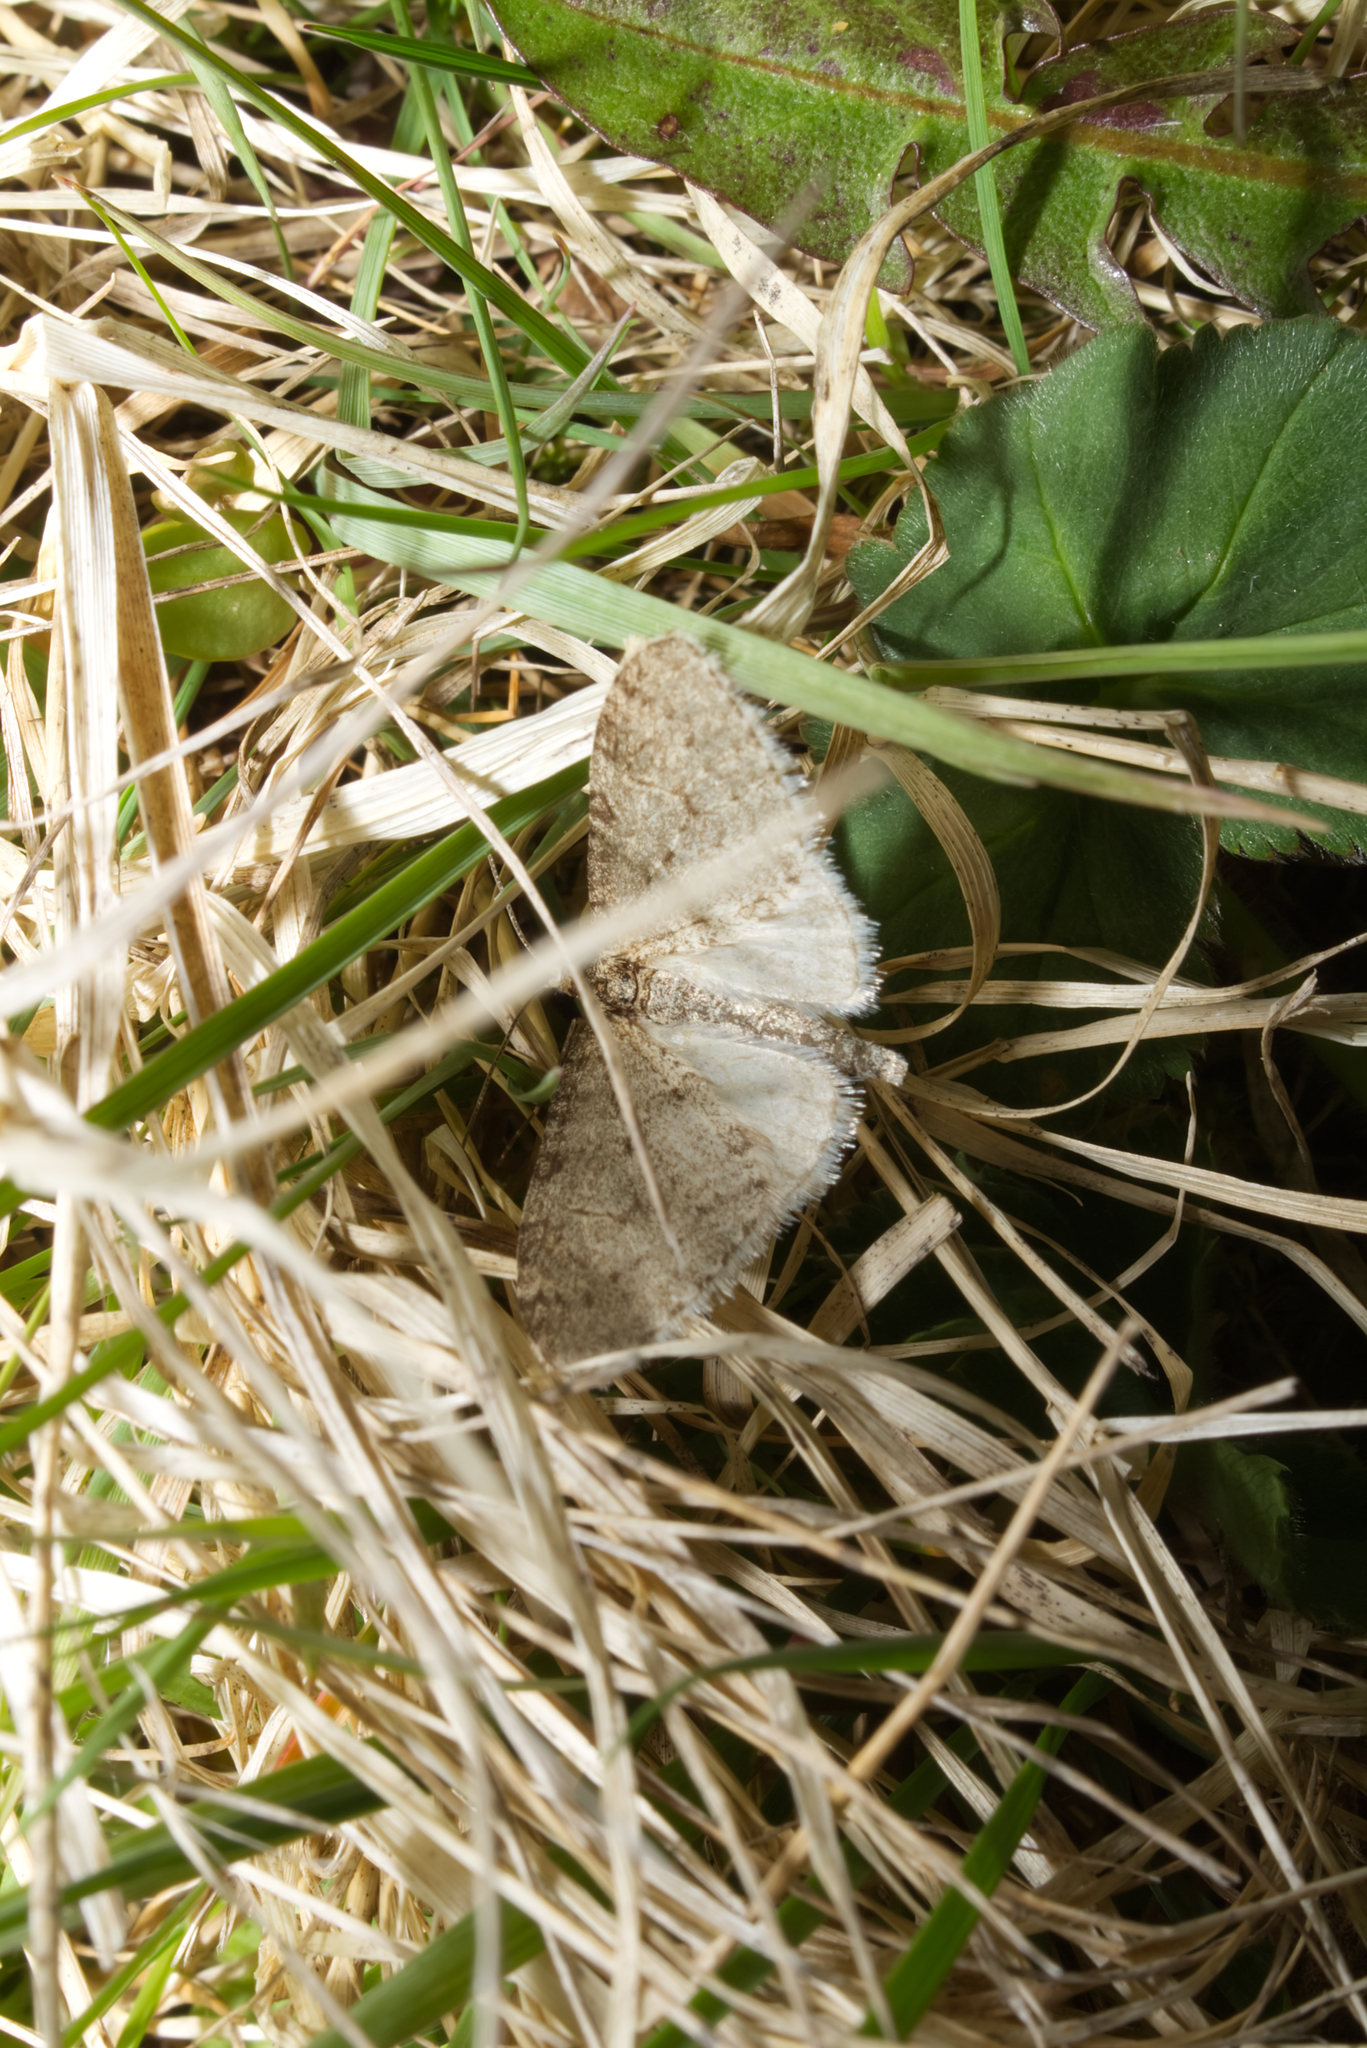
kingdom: Animalia
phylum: Arthropoda
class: Insecta
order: Lepidoptera
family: Geometridae
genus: Trichopteryx
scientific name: Trichopteryx carpinata
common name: Early tooth-striped
